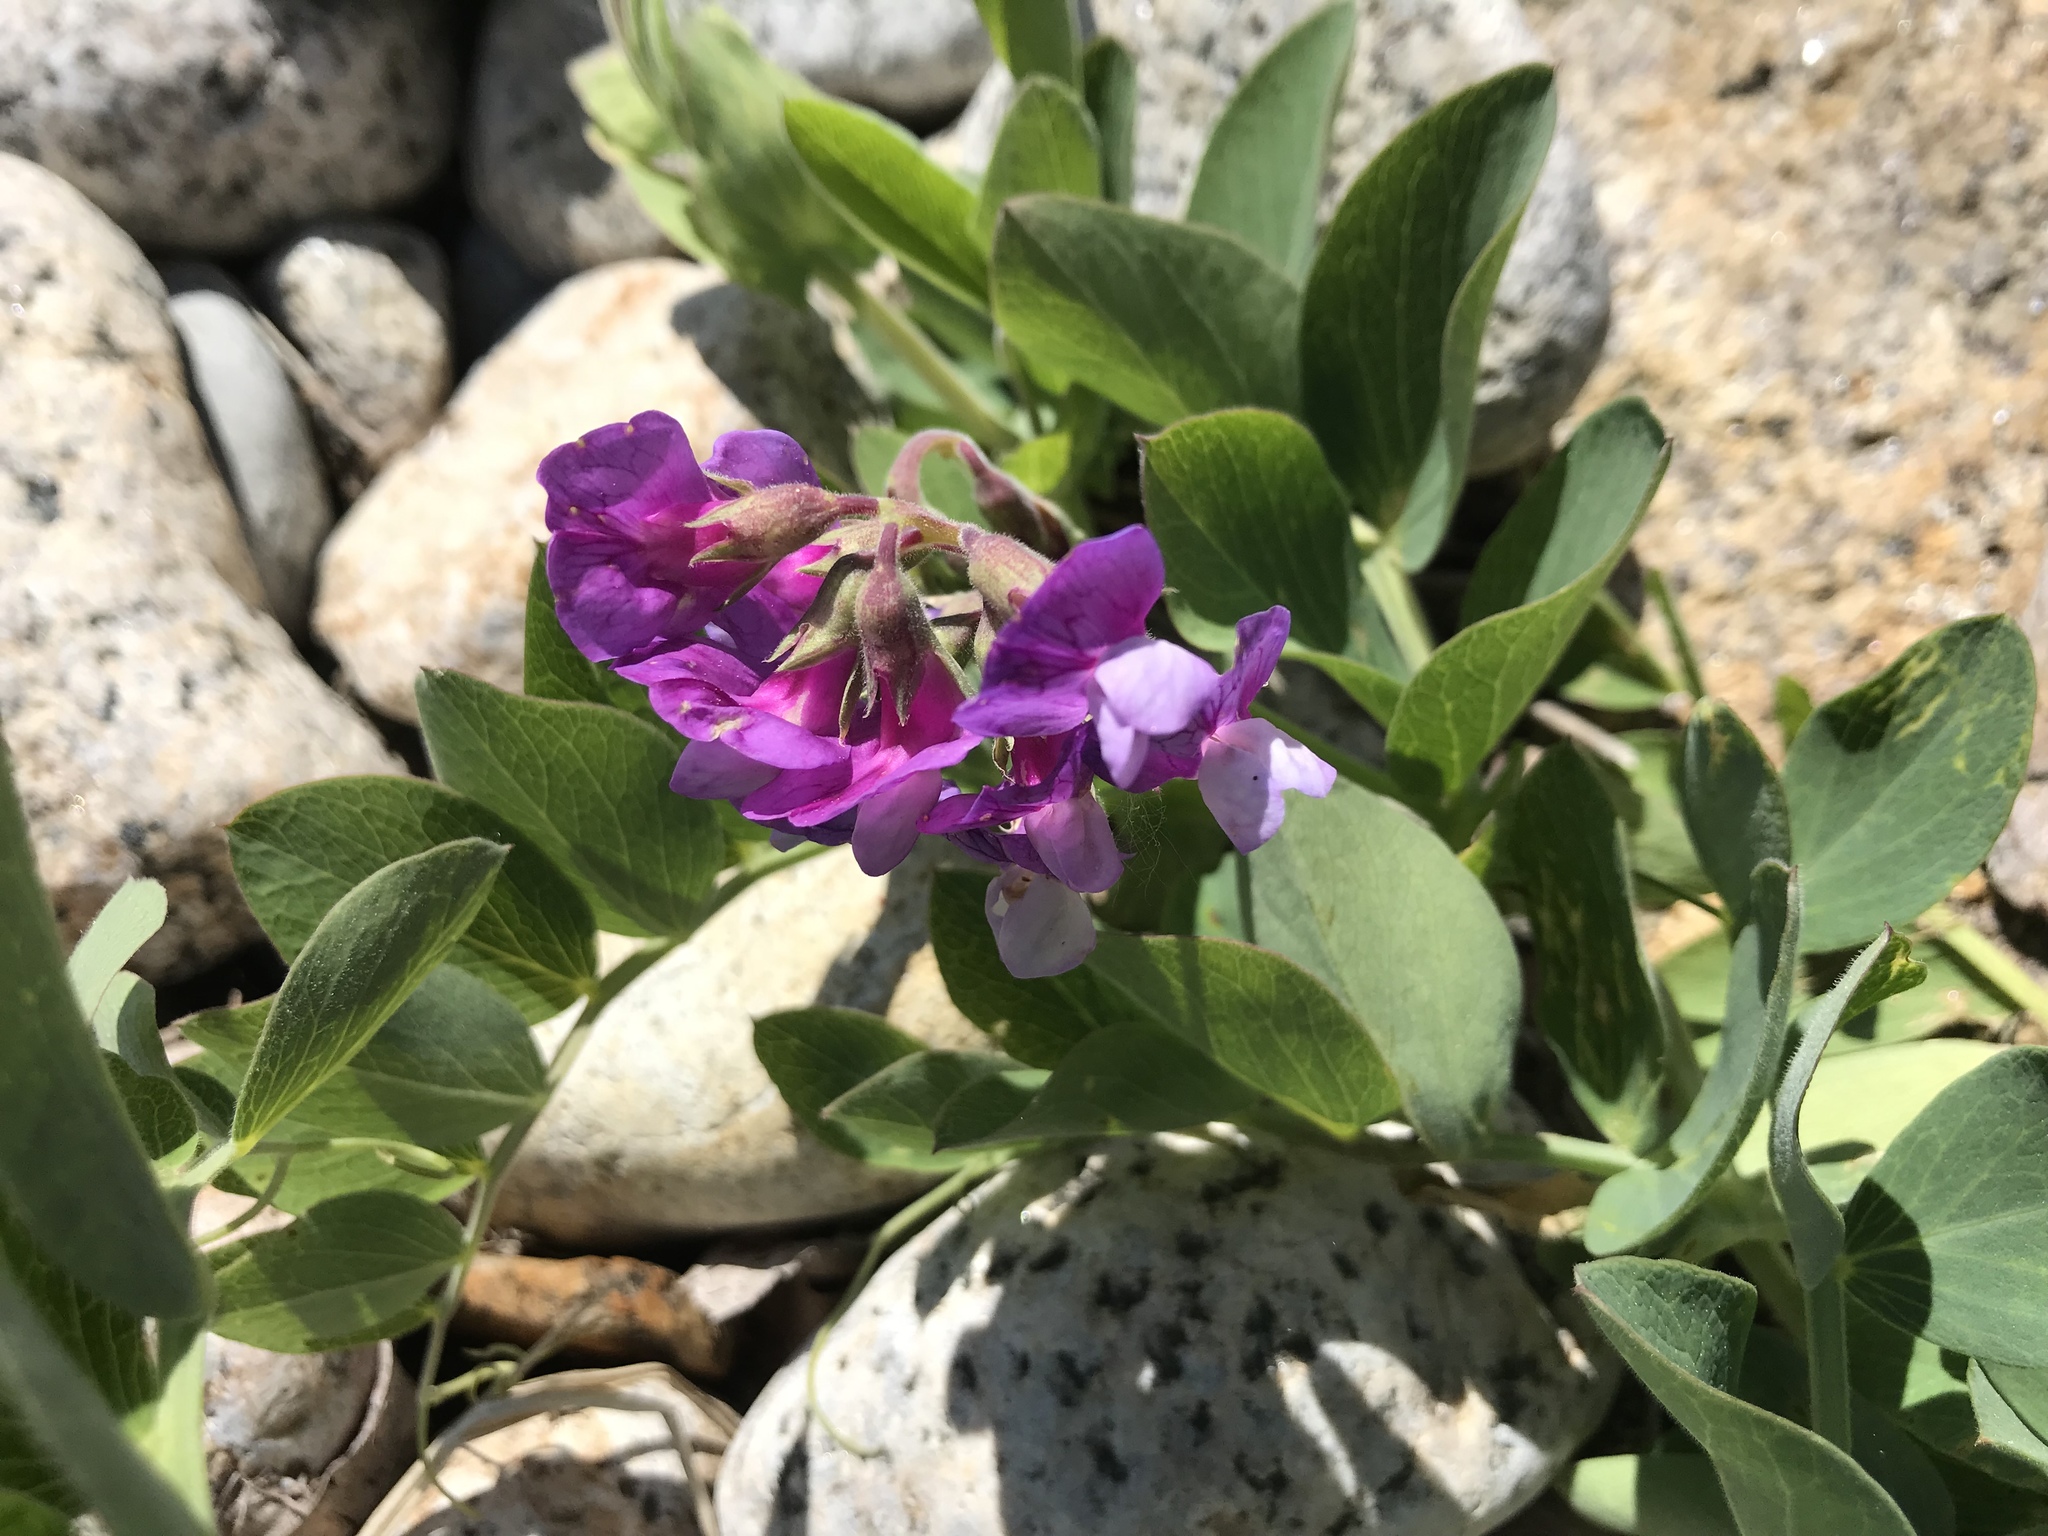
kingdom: Plantae
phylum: Tracheophyta
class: Magnoliopsida
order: Fabales
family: Fabaceae
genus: Lathyrus
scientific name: Lathyrus japonicus
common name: Sea pea
